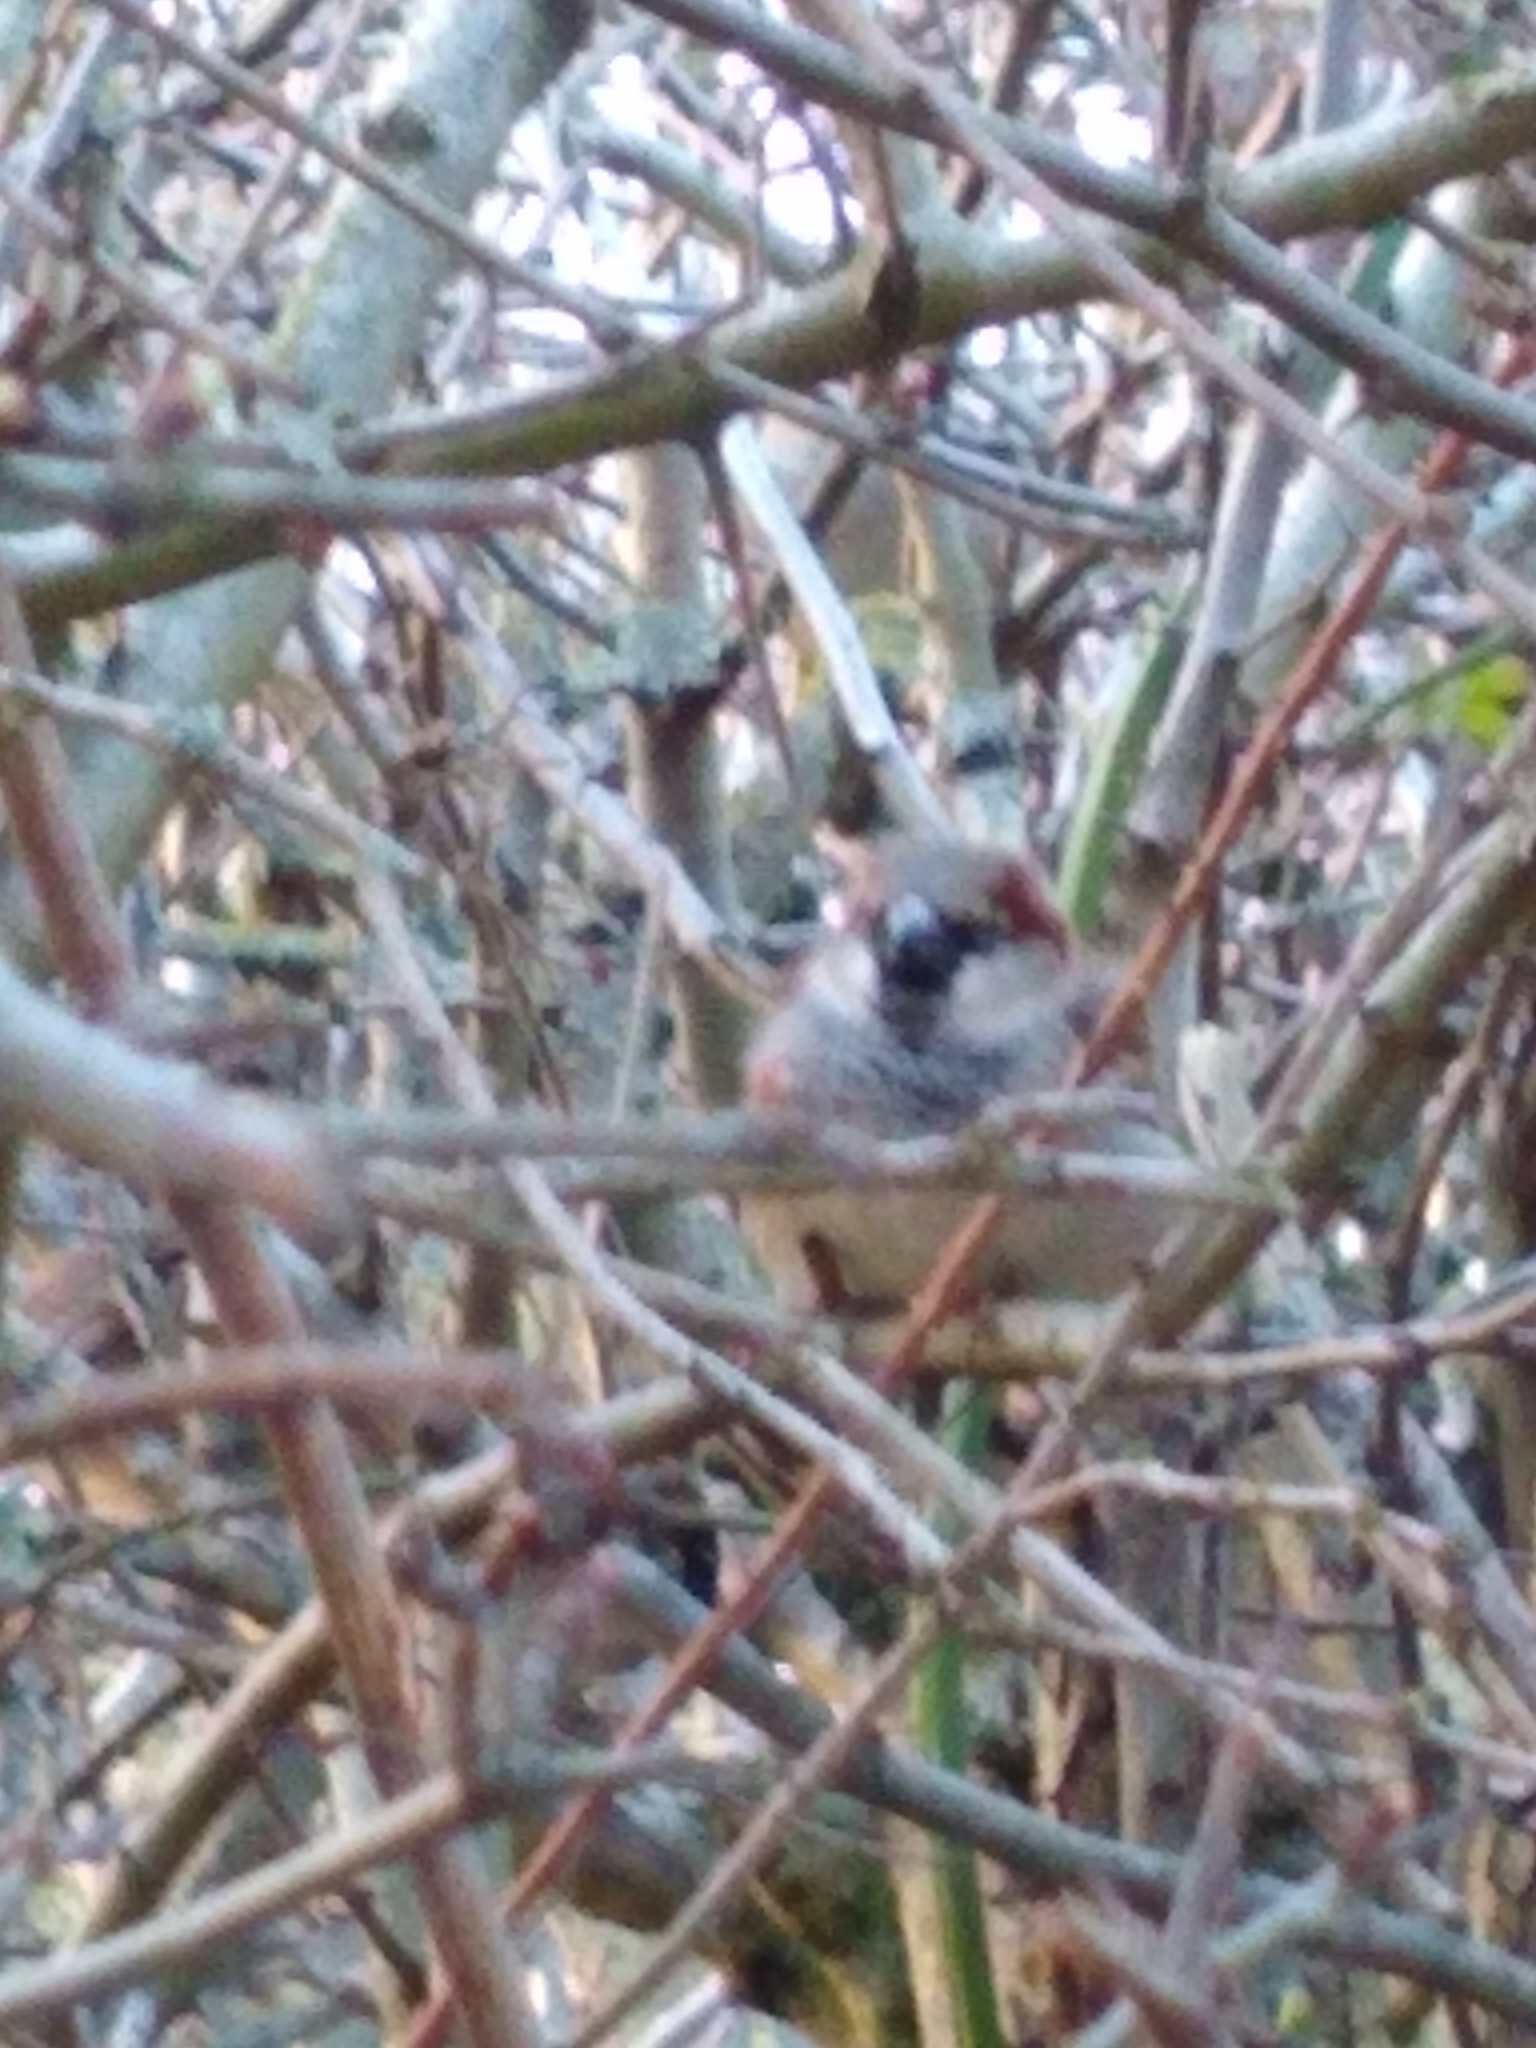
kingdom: Animalia
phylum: Chordata
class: Aves
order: Passeriformes
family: Passeridae
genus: Passer
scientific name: Passer domesticus
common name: House sparrow
